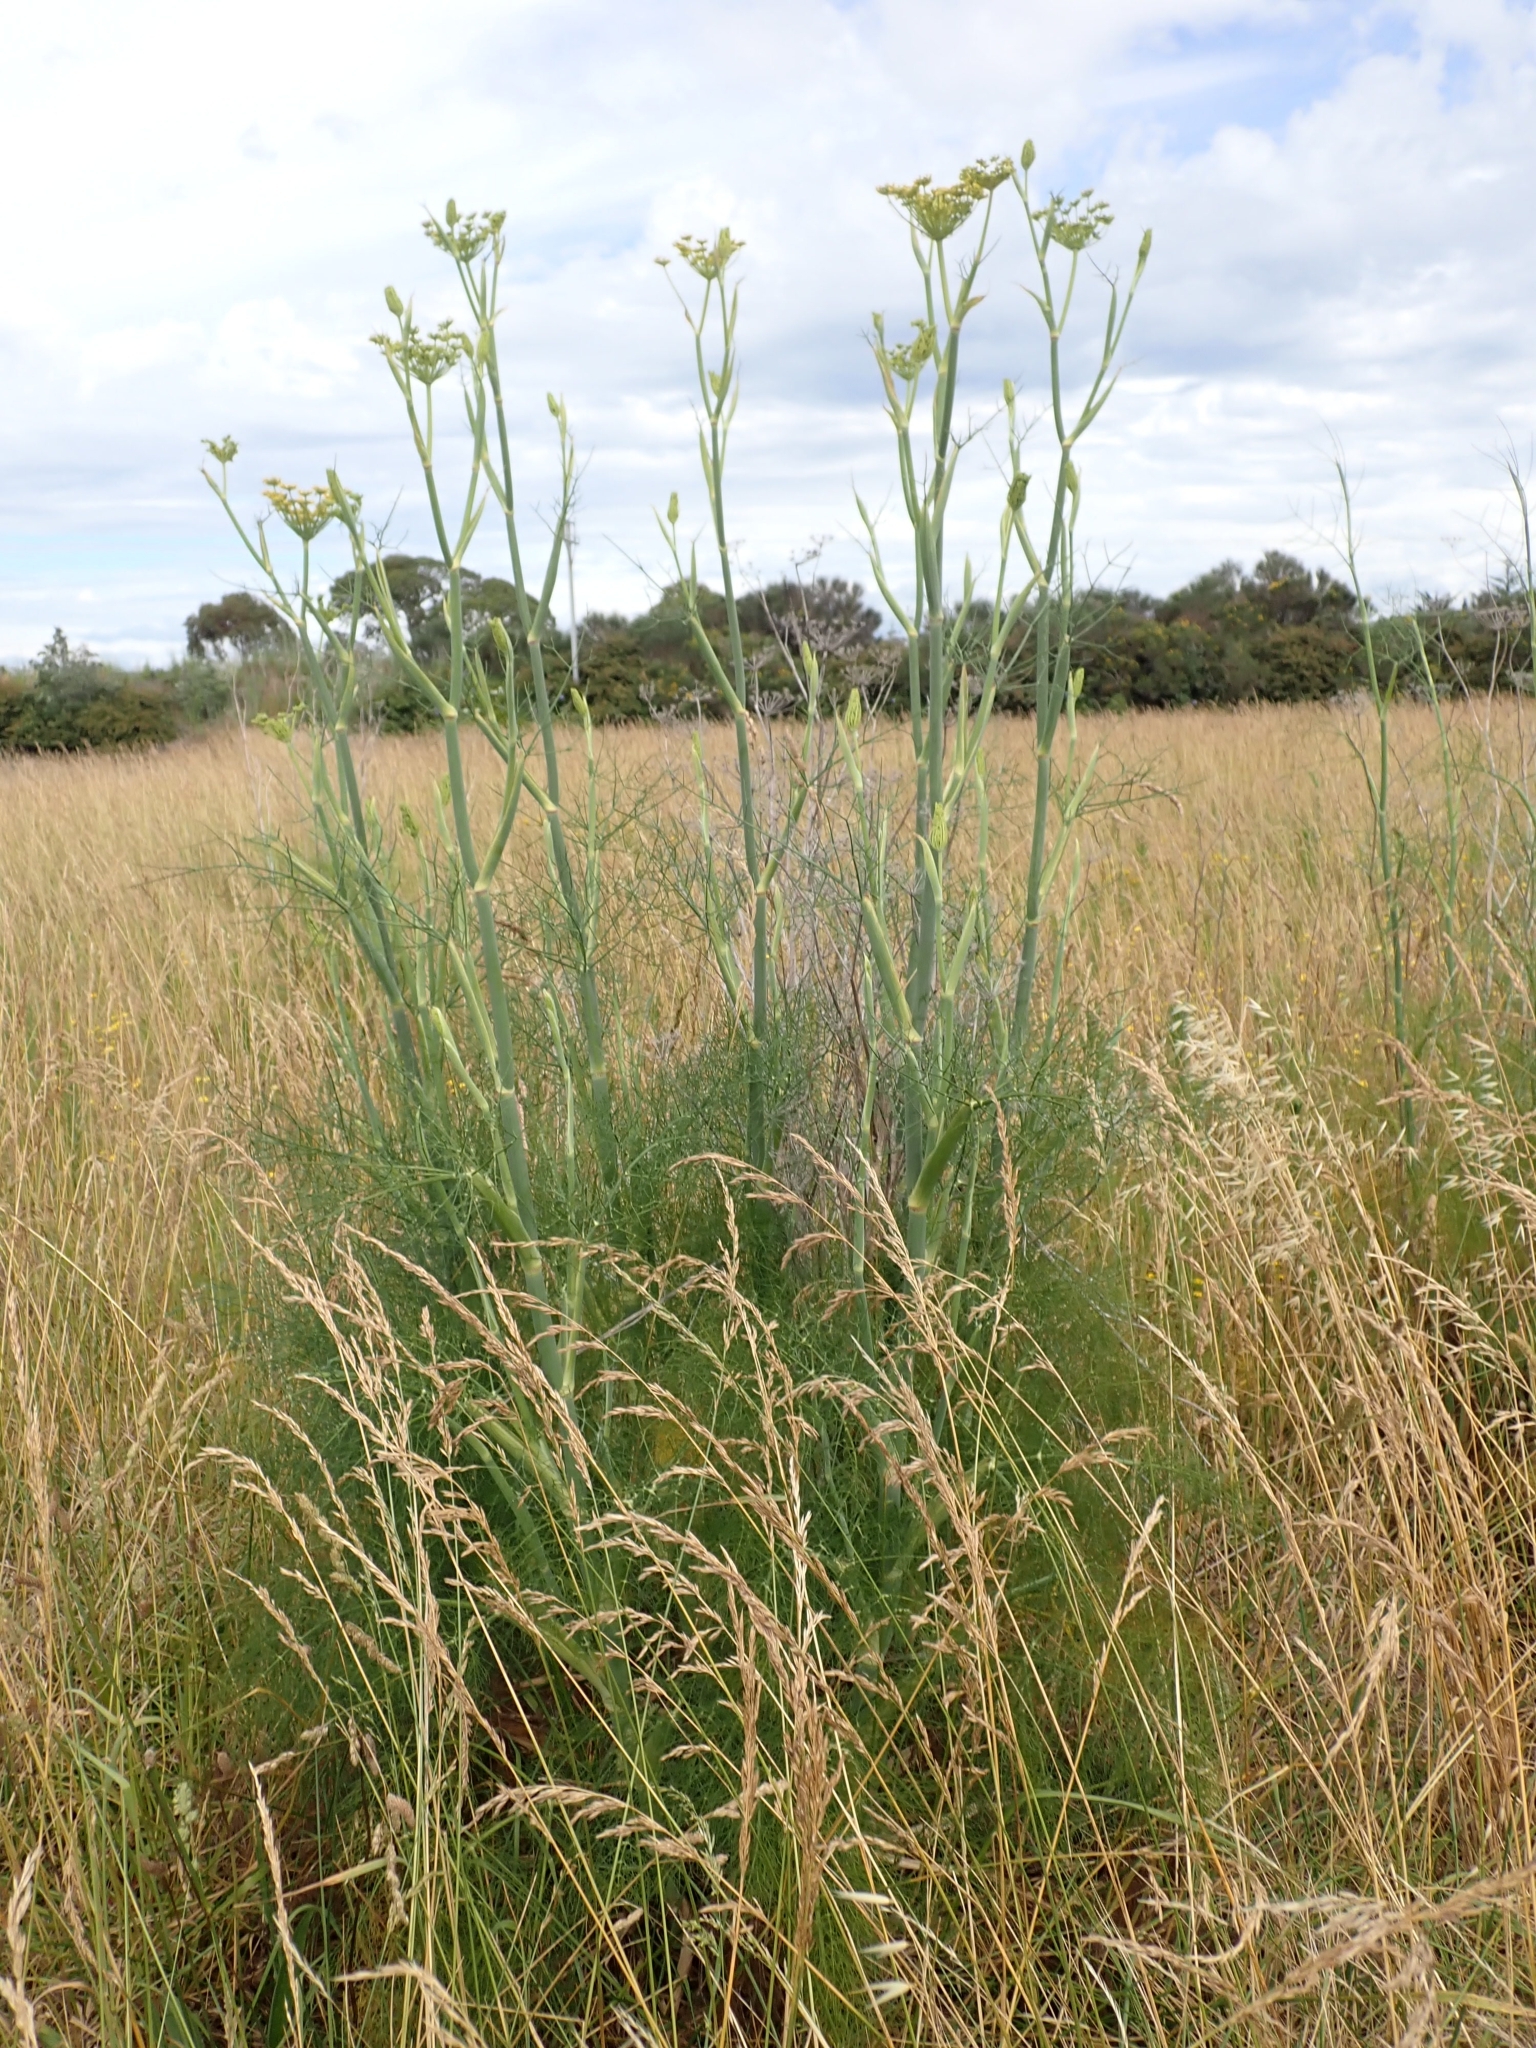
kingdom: Plantae
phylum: Tracheophyta
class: Magnoliopsida
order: Apiales
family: Apiaceae
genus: Foeniculum
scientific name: Foeniculum vulgare
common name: Fennel
